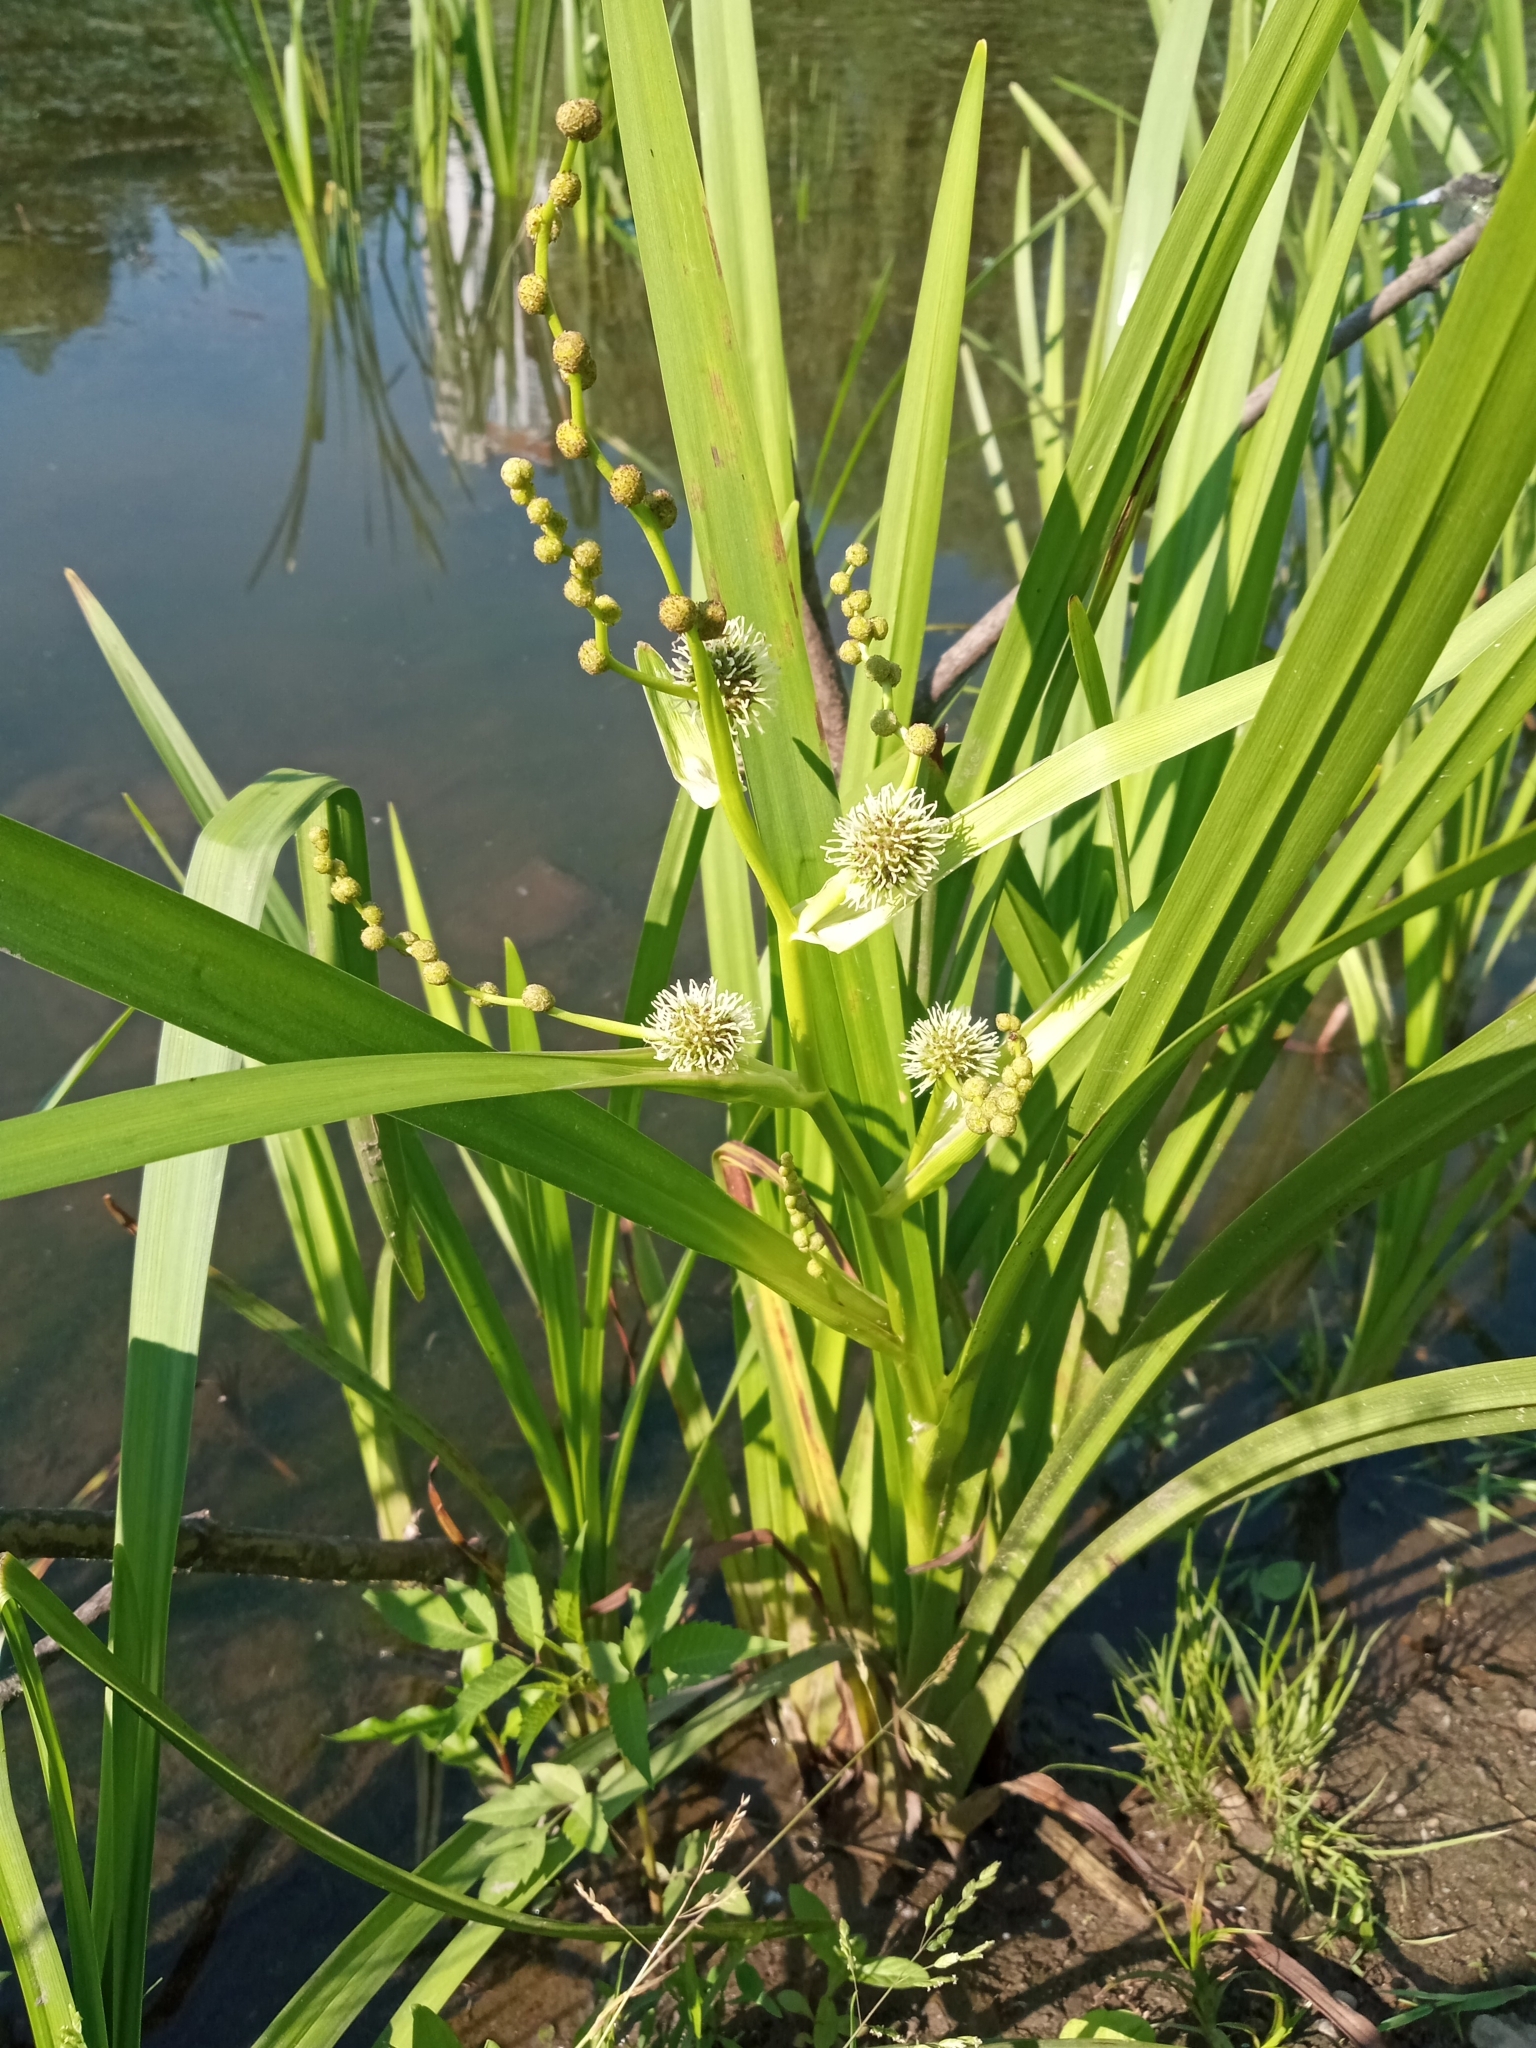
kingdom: Plantae
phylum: Tracheophyta
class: Liliopsida
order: Poales
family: Typhaceae
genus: Sparganium
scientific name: Sparganium erectum
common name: Branched bur-reed
